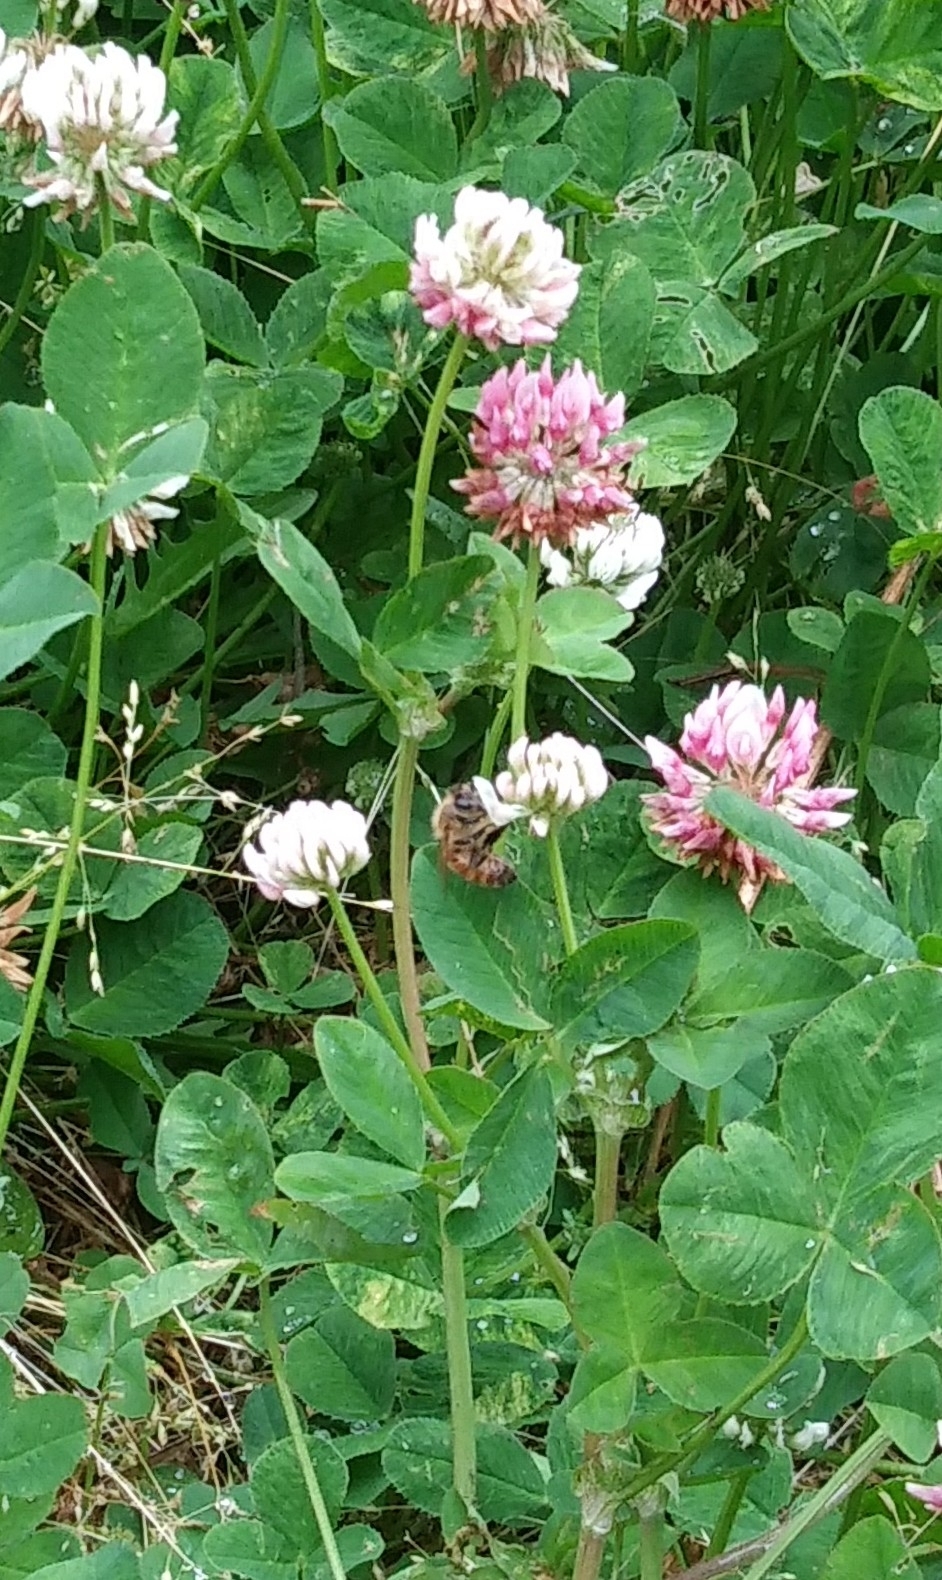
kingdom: Animalia
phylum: Arthropoda
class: Insecta
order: Hymenoptera
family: Apidae
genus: Apis
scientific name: Apis mellifera
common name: Honey bee
